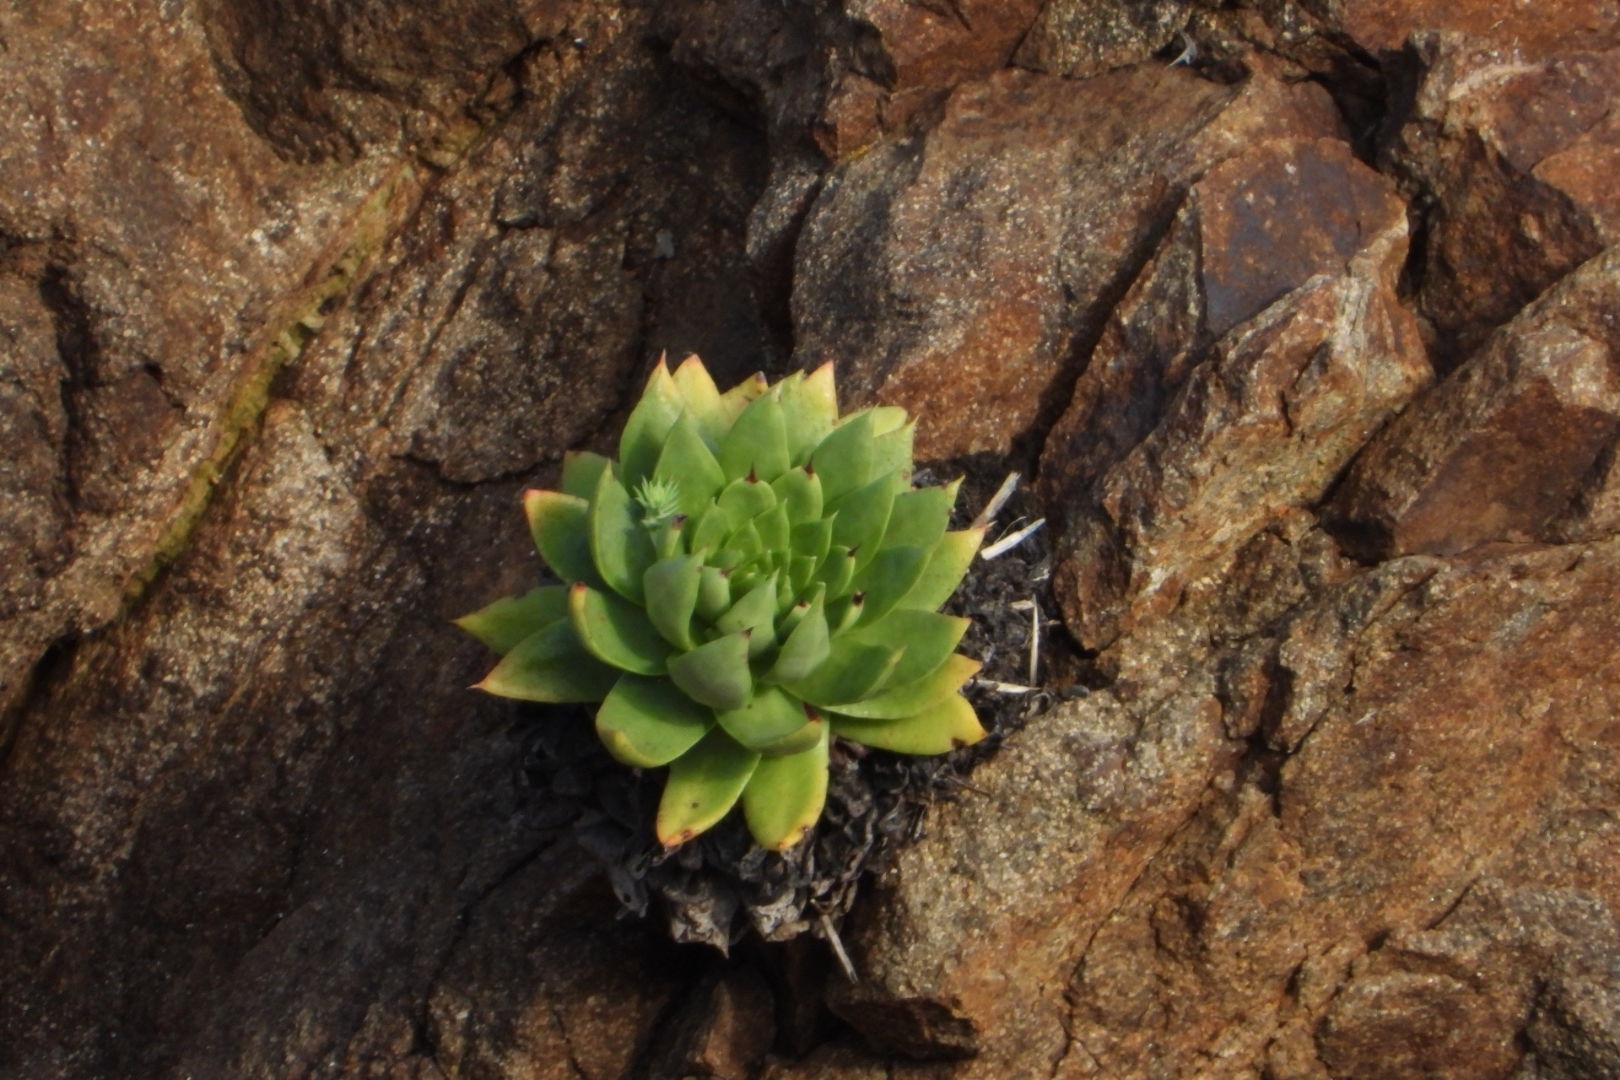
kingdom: Plantae
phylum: Tracheophyta
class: Magnoliopsida
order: Saxifragales
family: Crassulaceae
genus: Dudleya
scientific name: Dudleya
